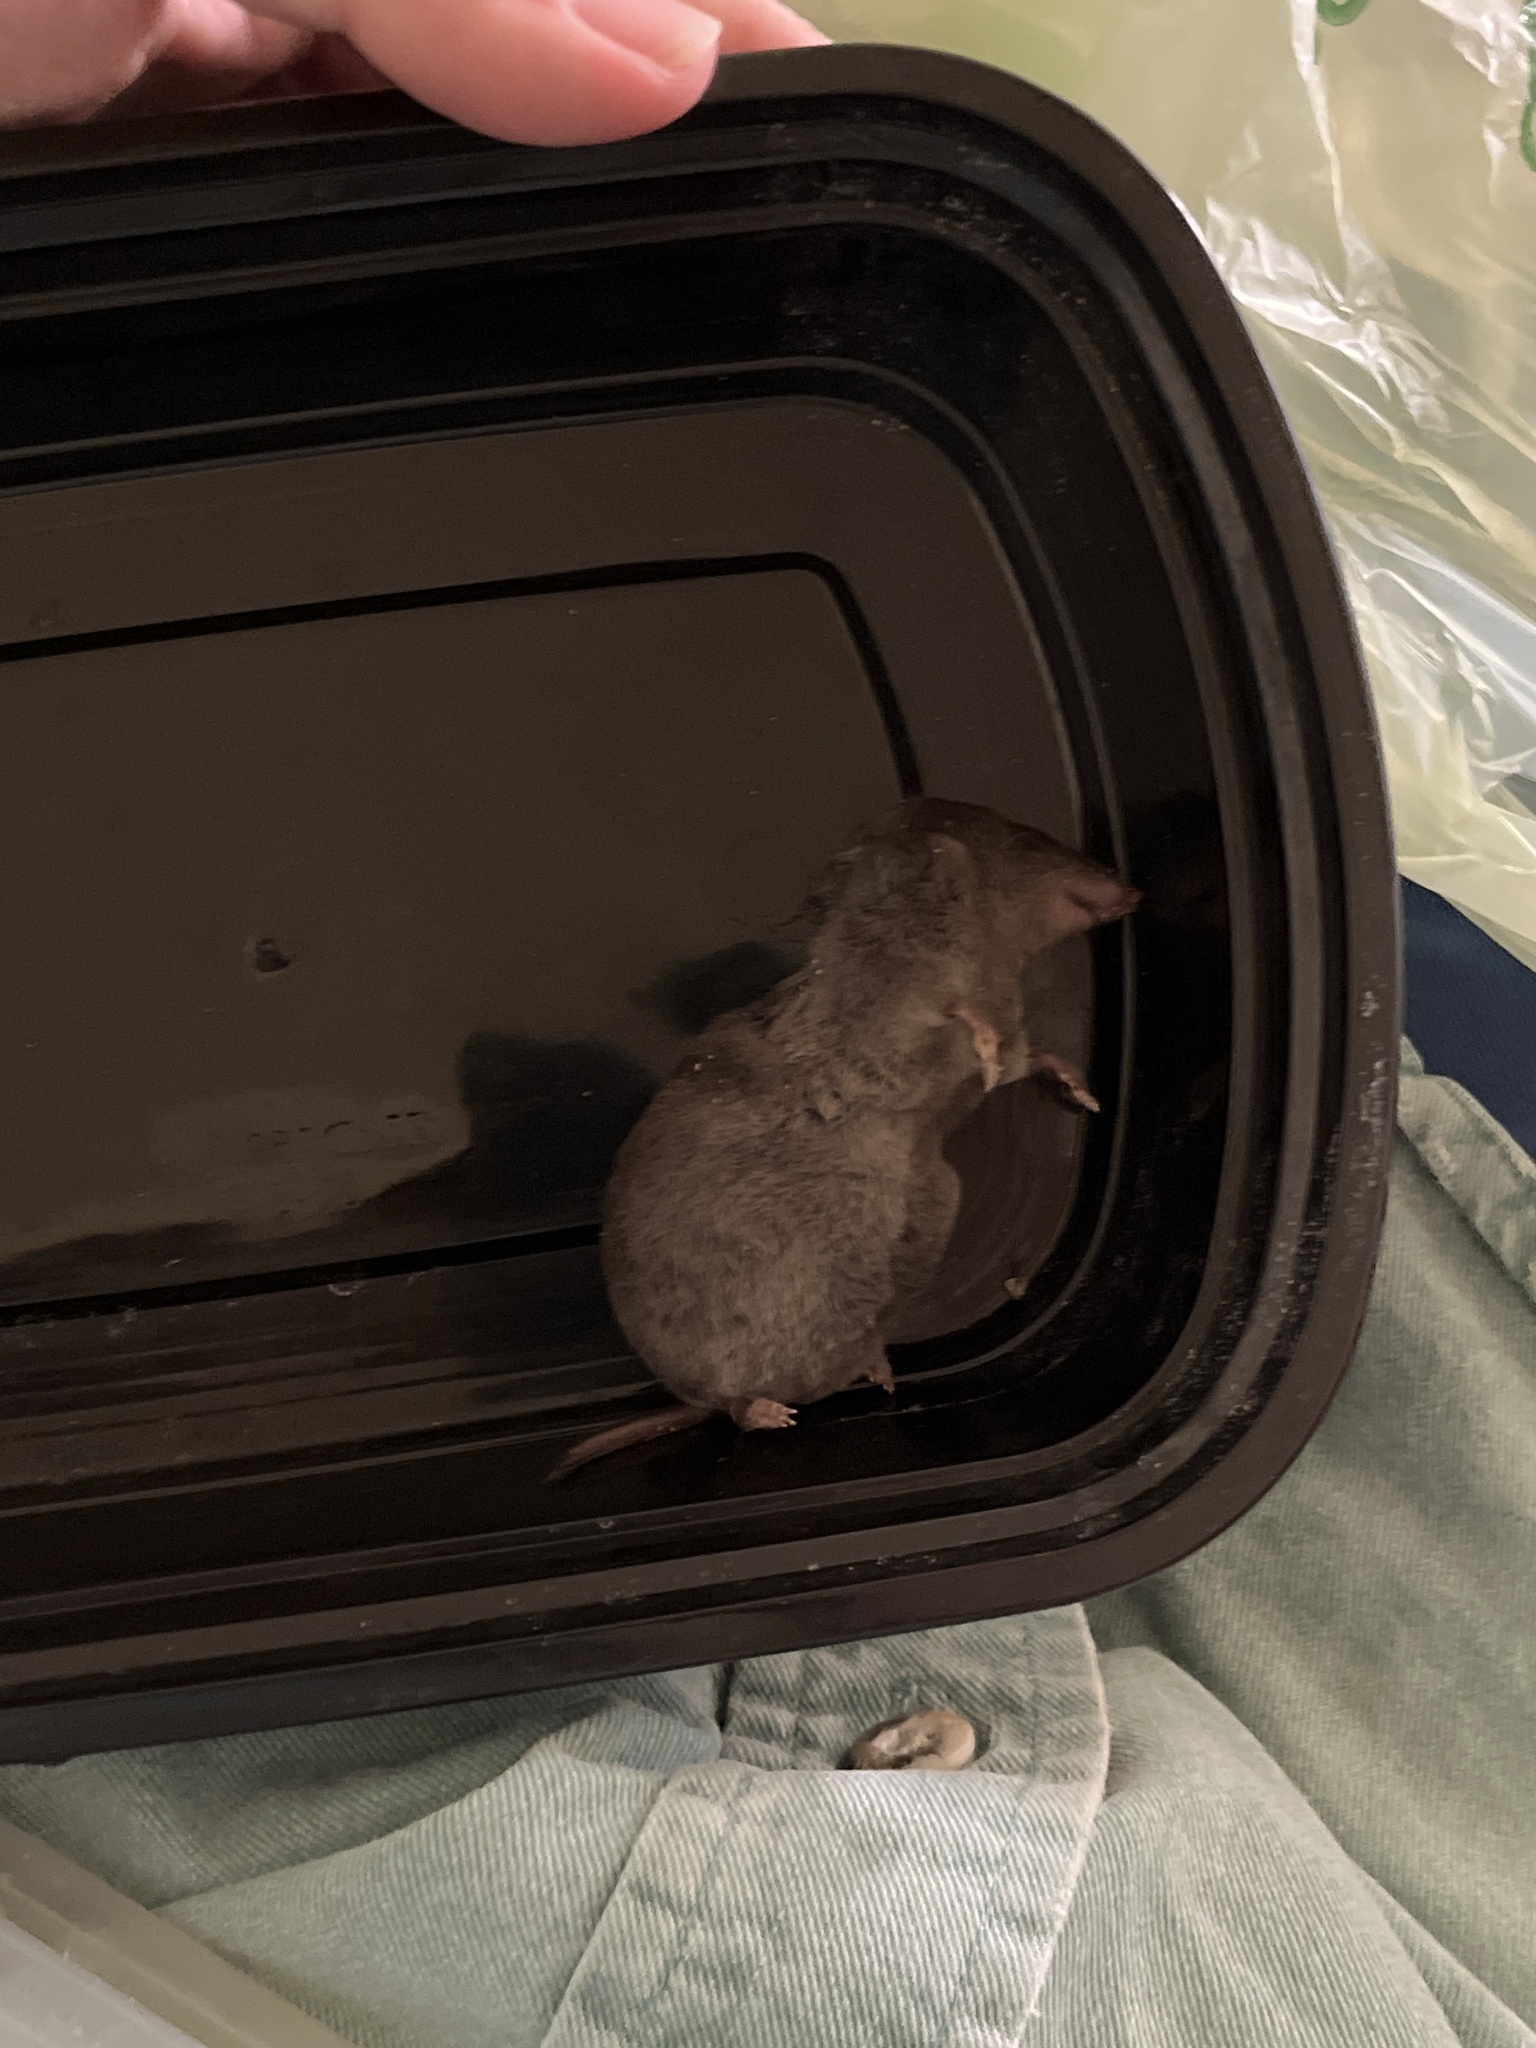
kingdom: Animalia
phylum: Chordata
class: Mammalia
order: Soricomorpha
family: Soricidae
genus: Blarina
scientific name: Blarina brevicauda
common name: Northern short-tailed shrew
